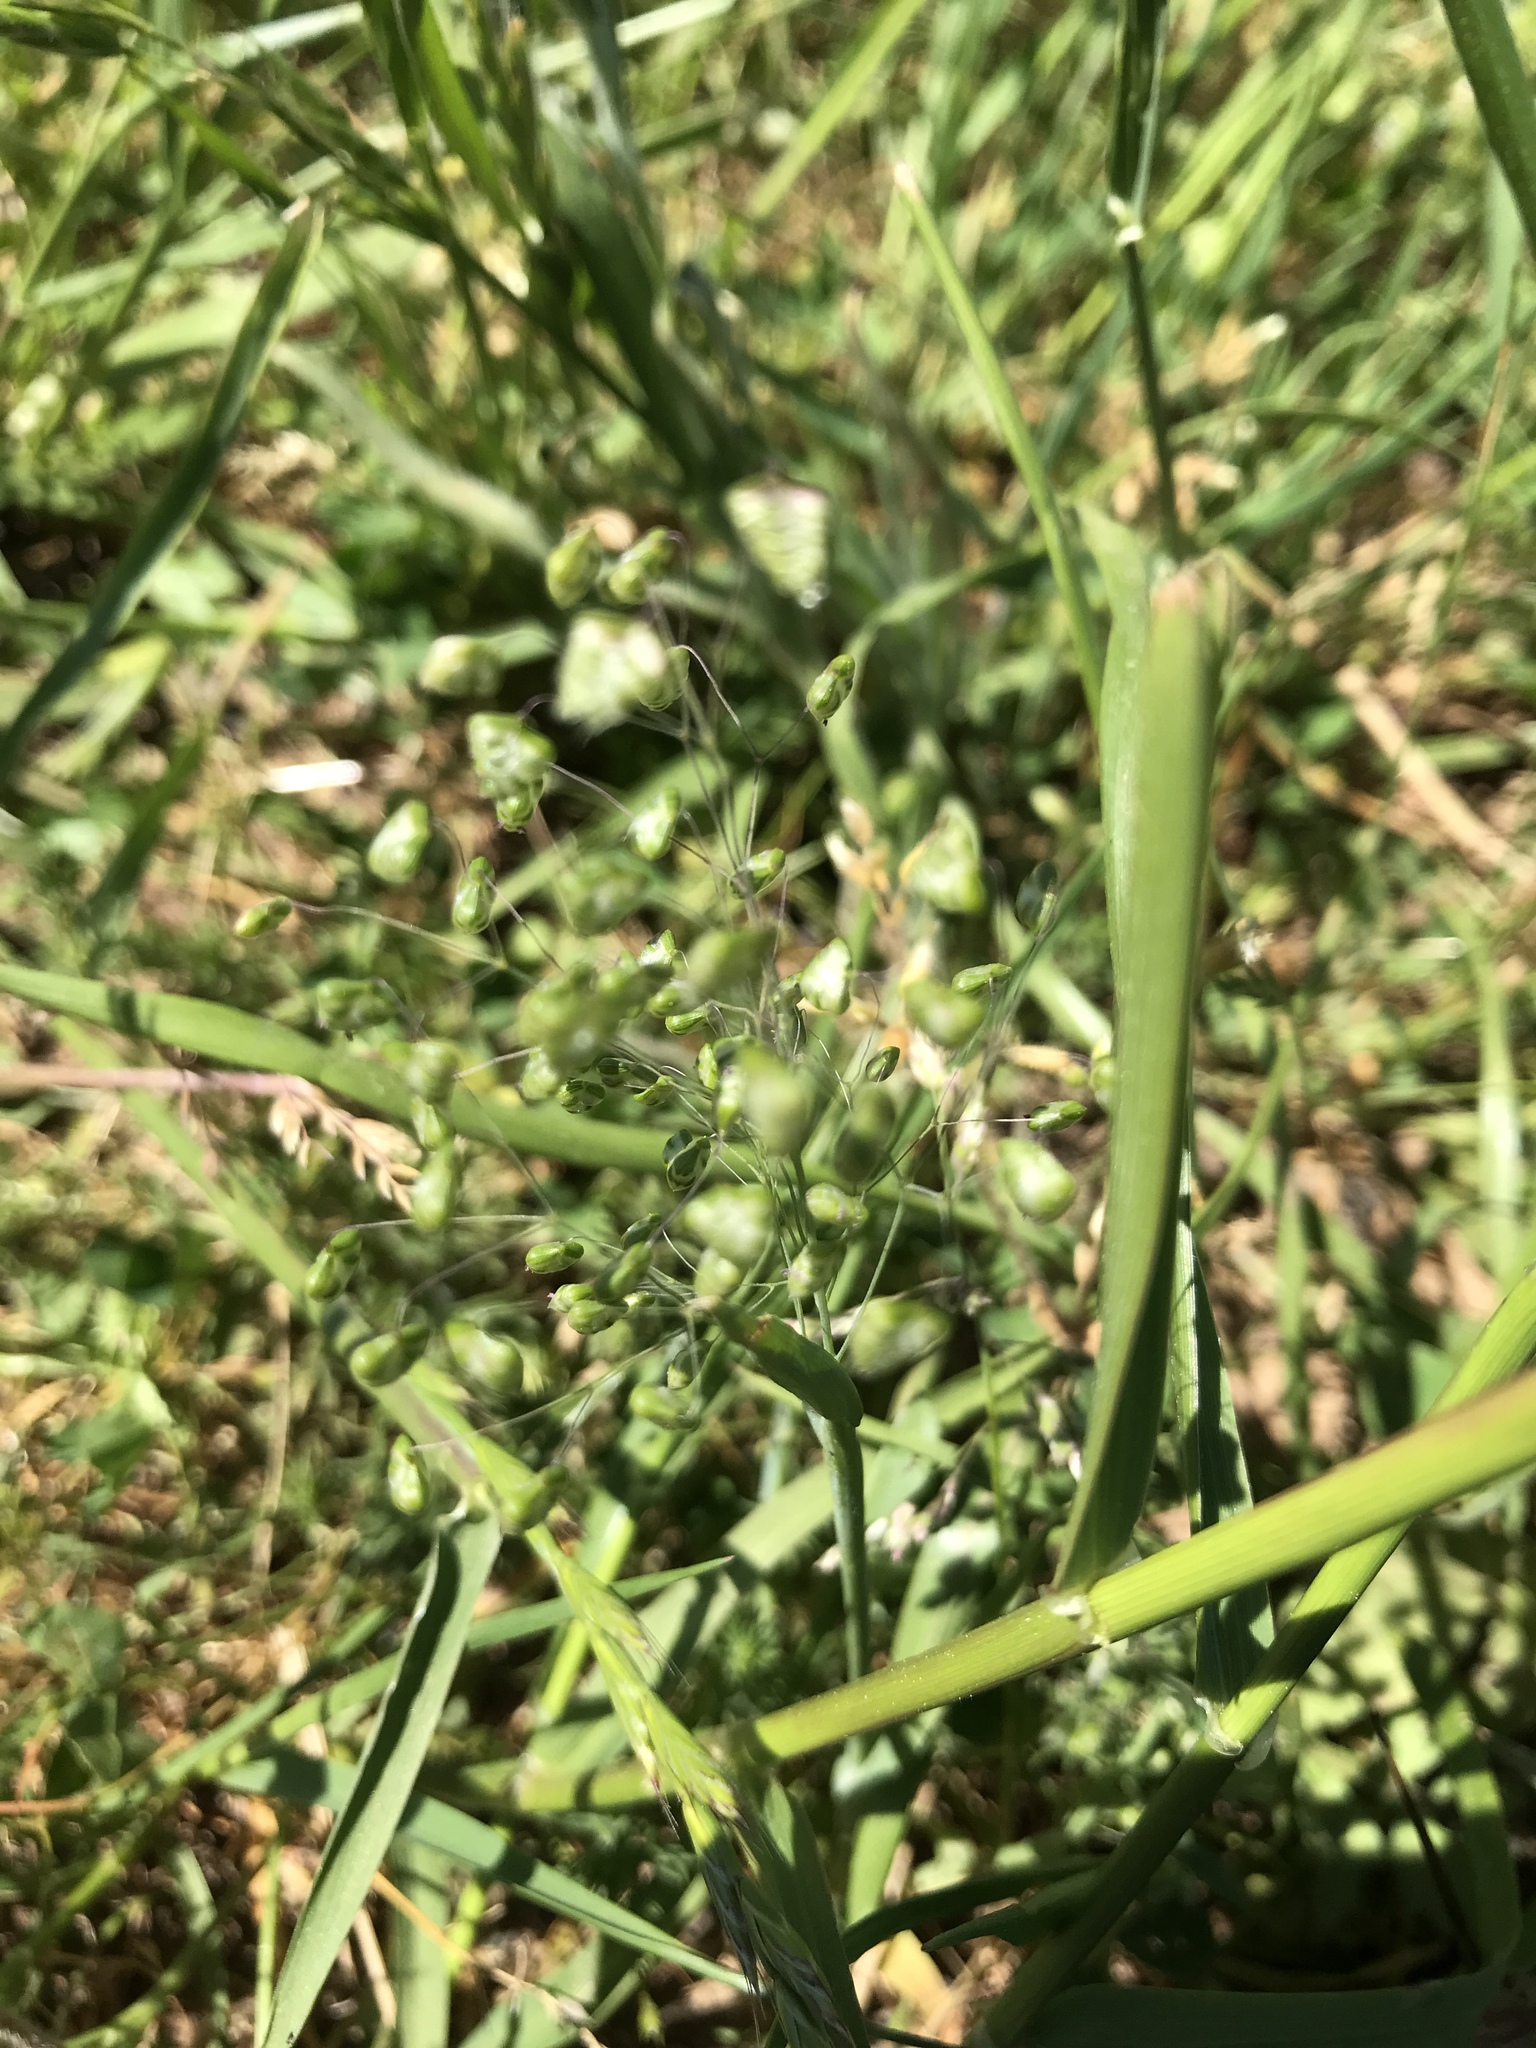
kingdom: Plantae
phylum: Tracheophyta
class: Liliopsida
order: Poales
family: Poaceae
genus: Briza
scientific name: Briza minor
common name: Lesser quaking-grass
